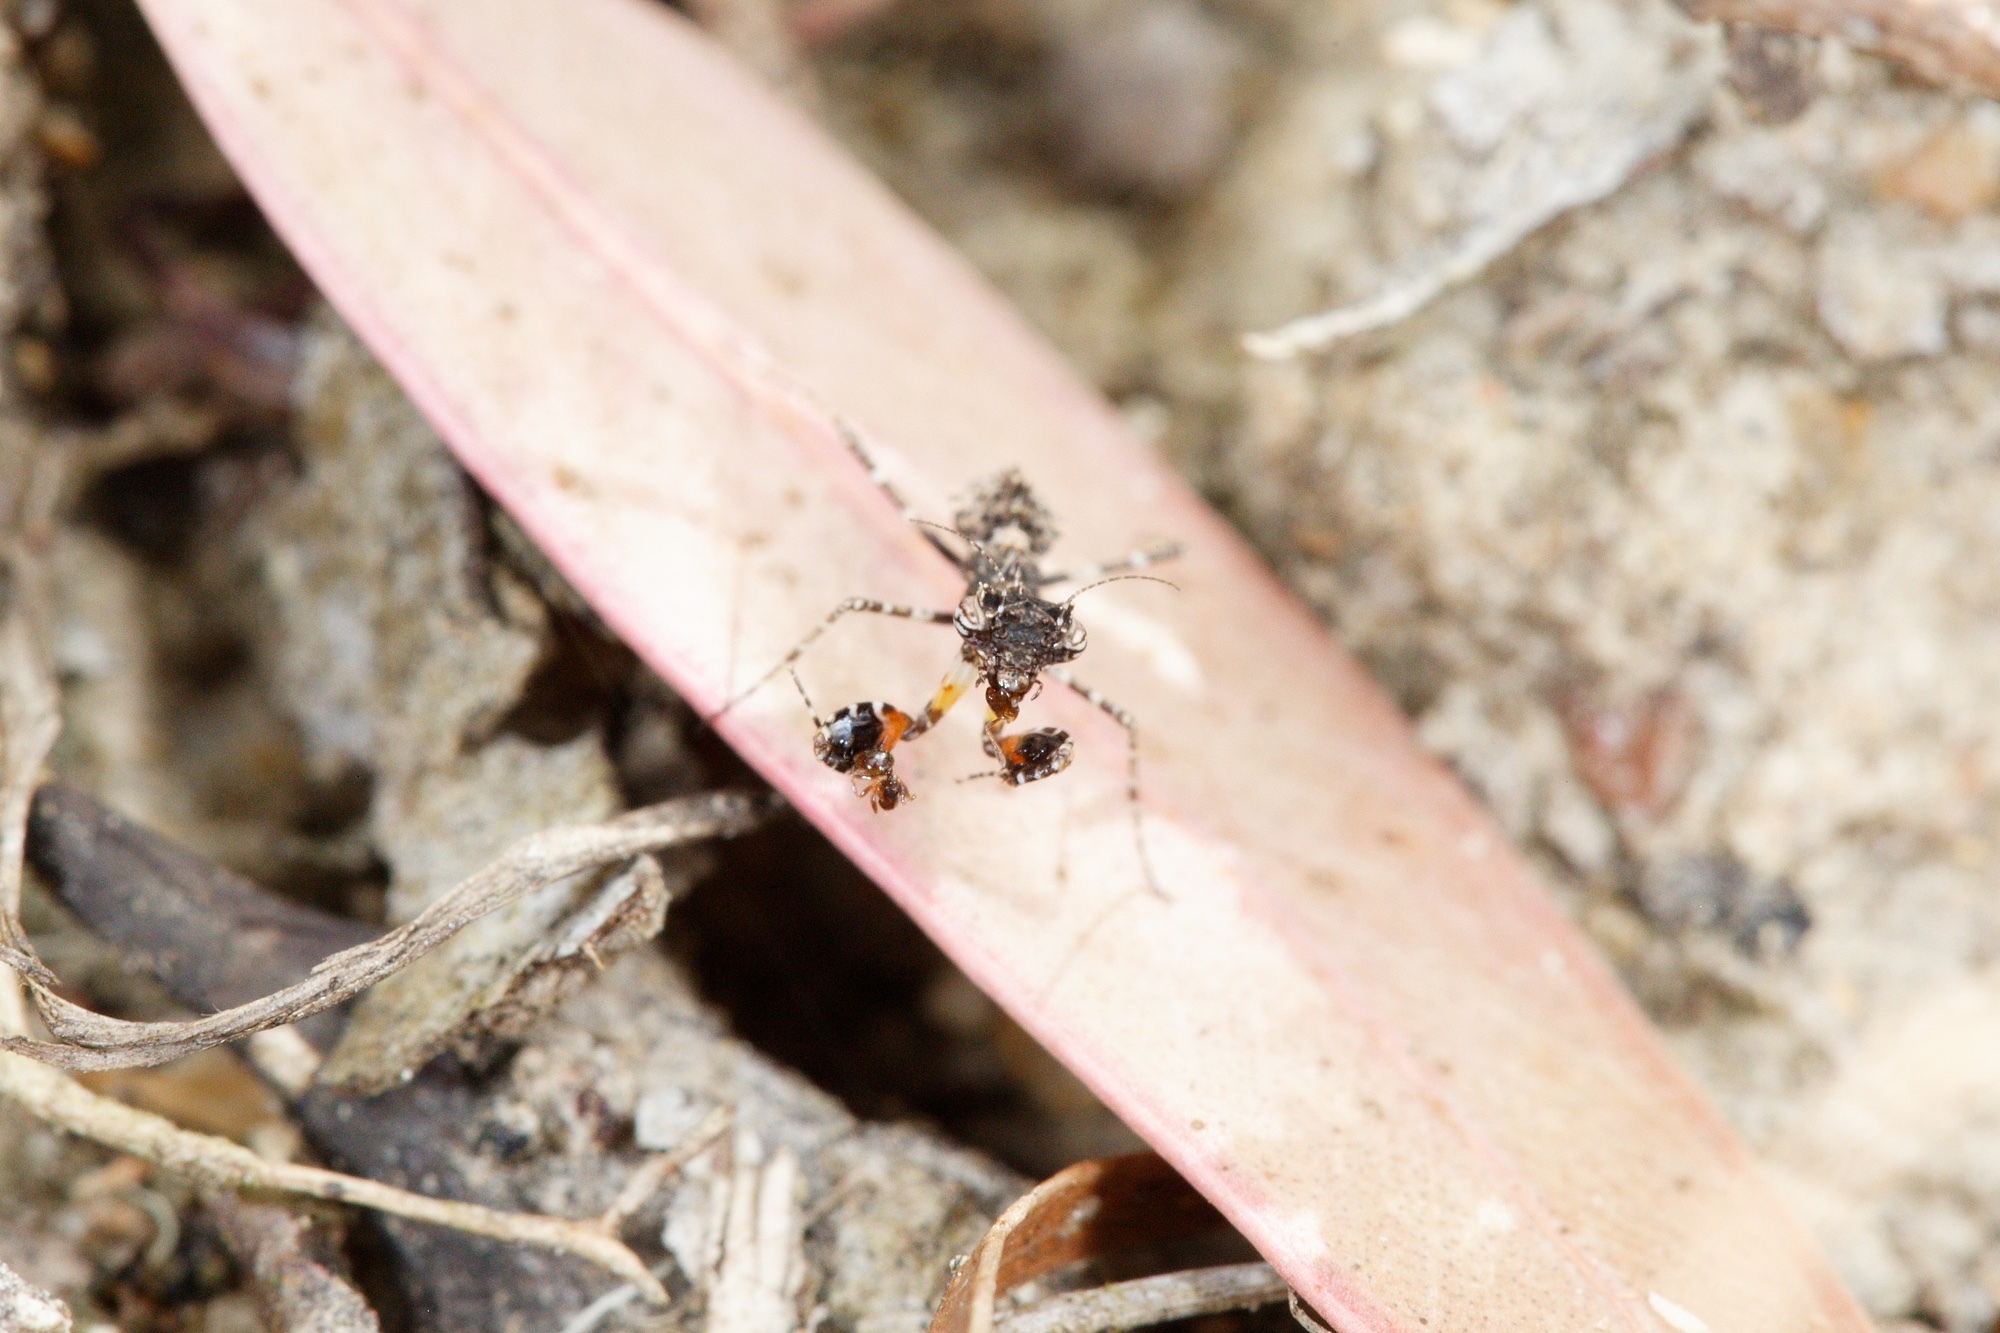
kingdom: Animalia
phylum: Arthropoda
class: Insecta
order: Mantodea
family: Nanomantidae
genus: Paraoxypilus
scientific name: Paraoxypilus tasmaniensis
